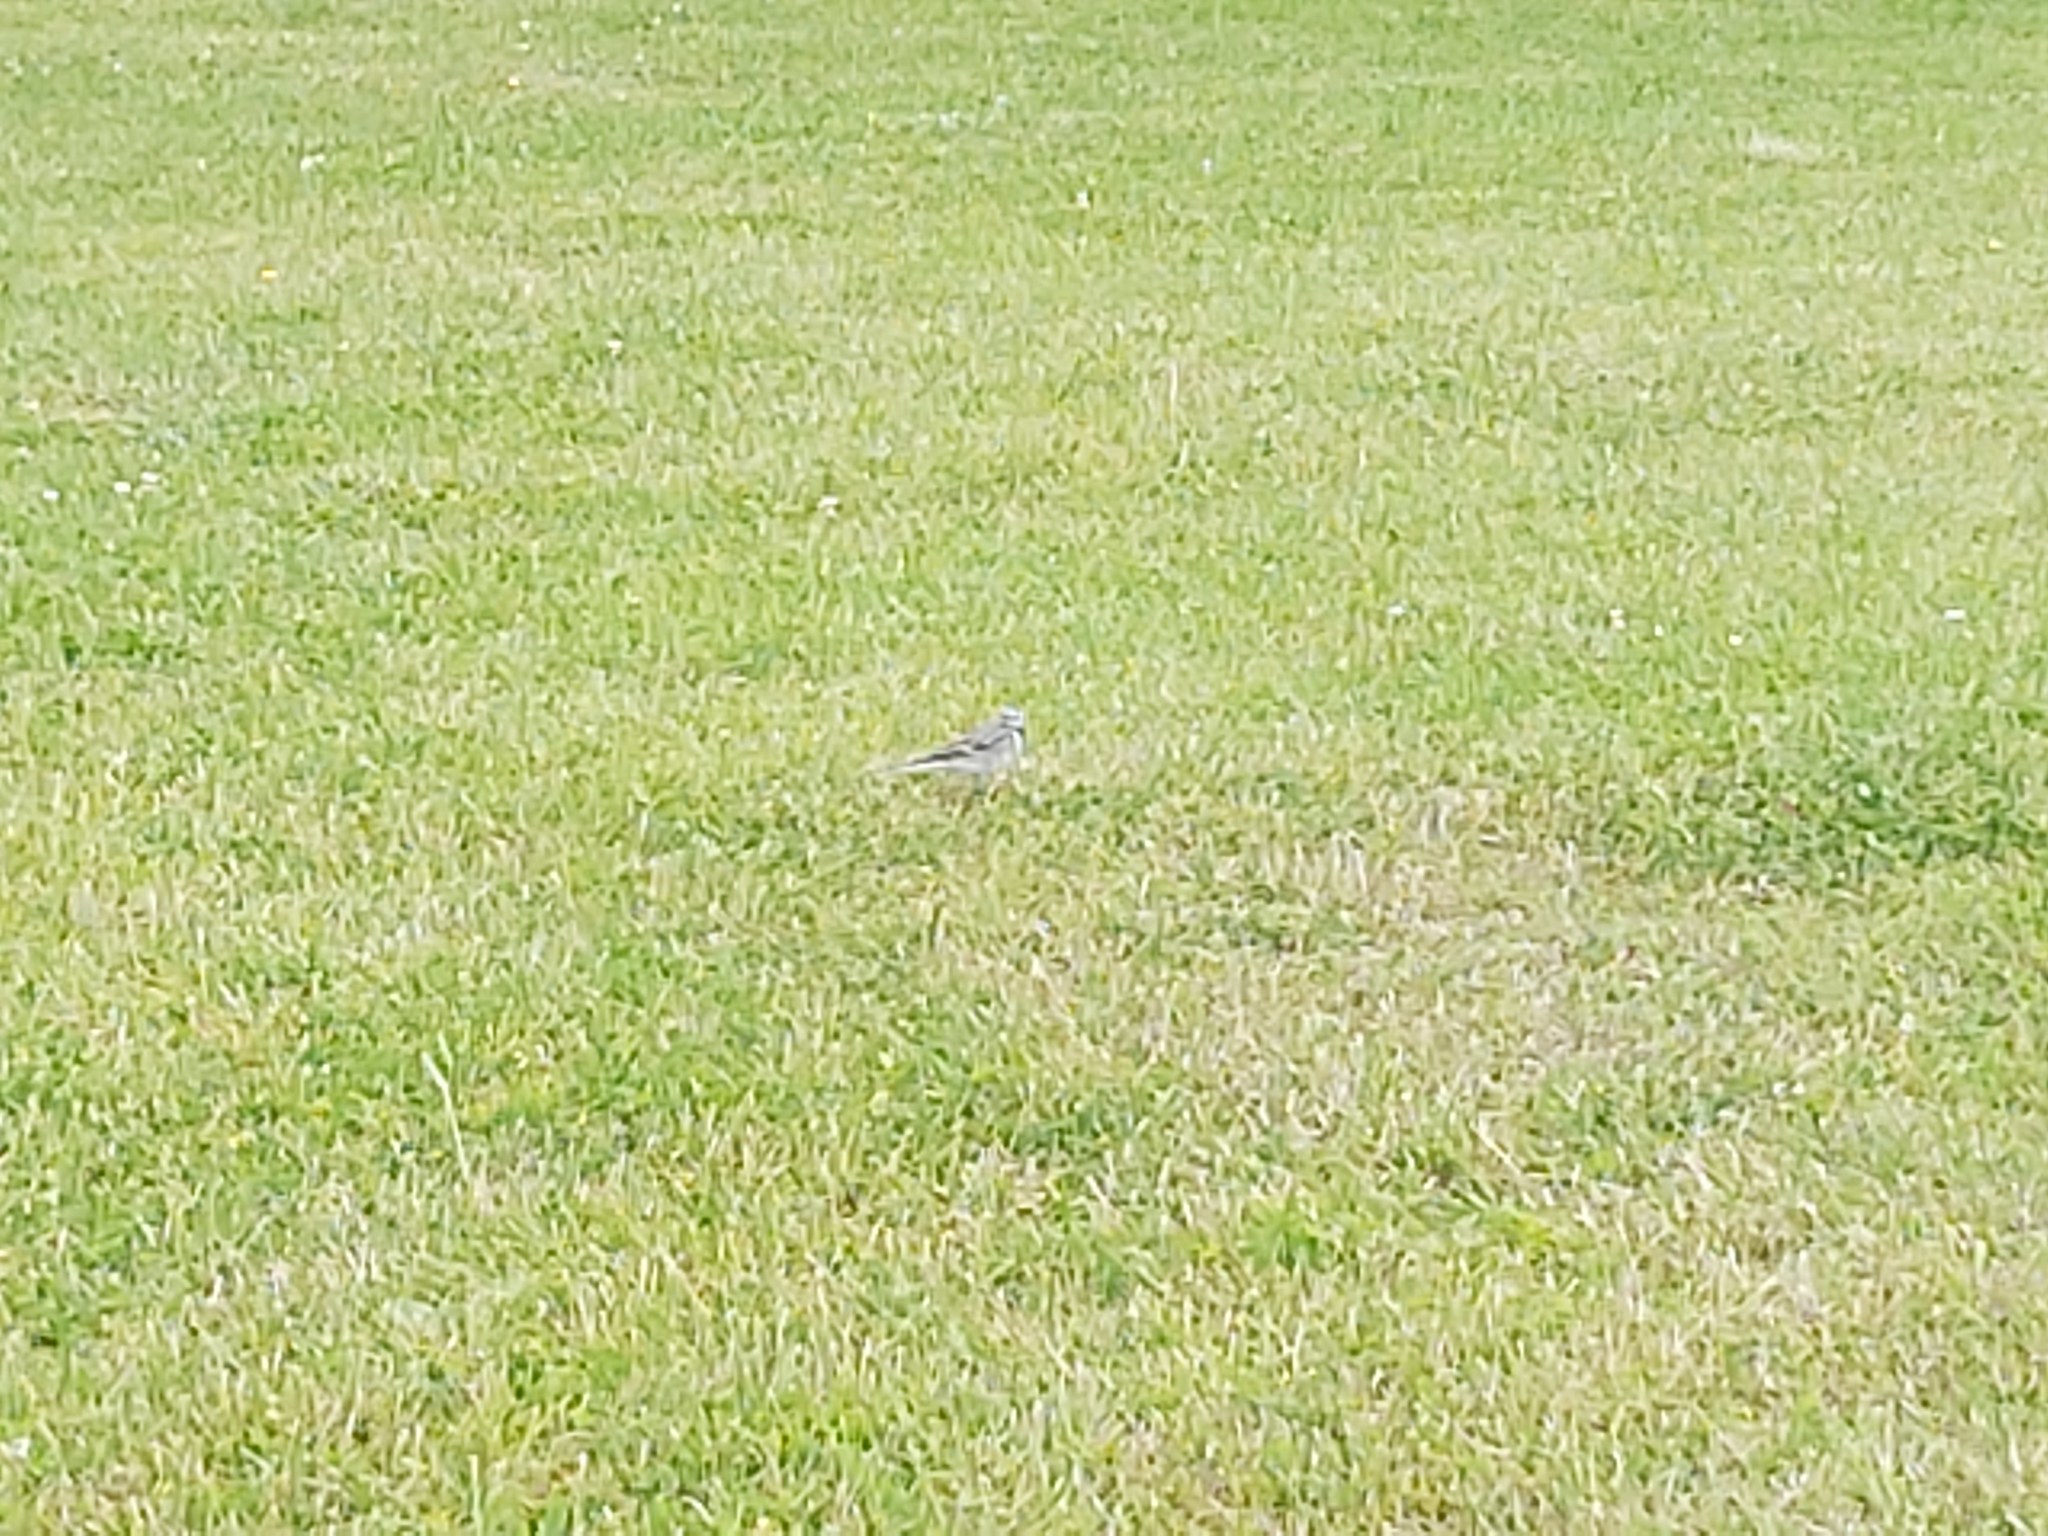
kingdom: Animalia
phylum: Chordata
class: Aves
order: Passeriformes
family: Motacillidae
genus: Motacilla
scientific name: Motacilla alba
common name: White wagtail
